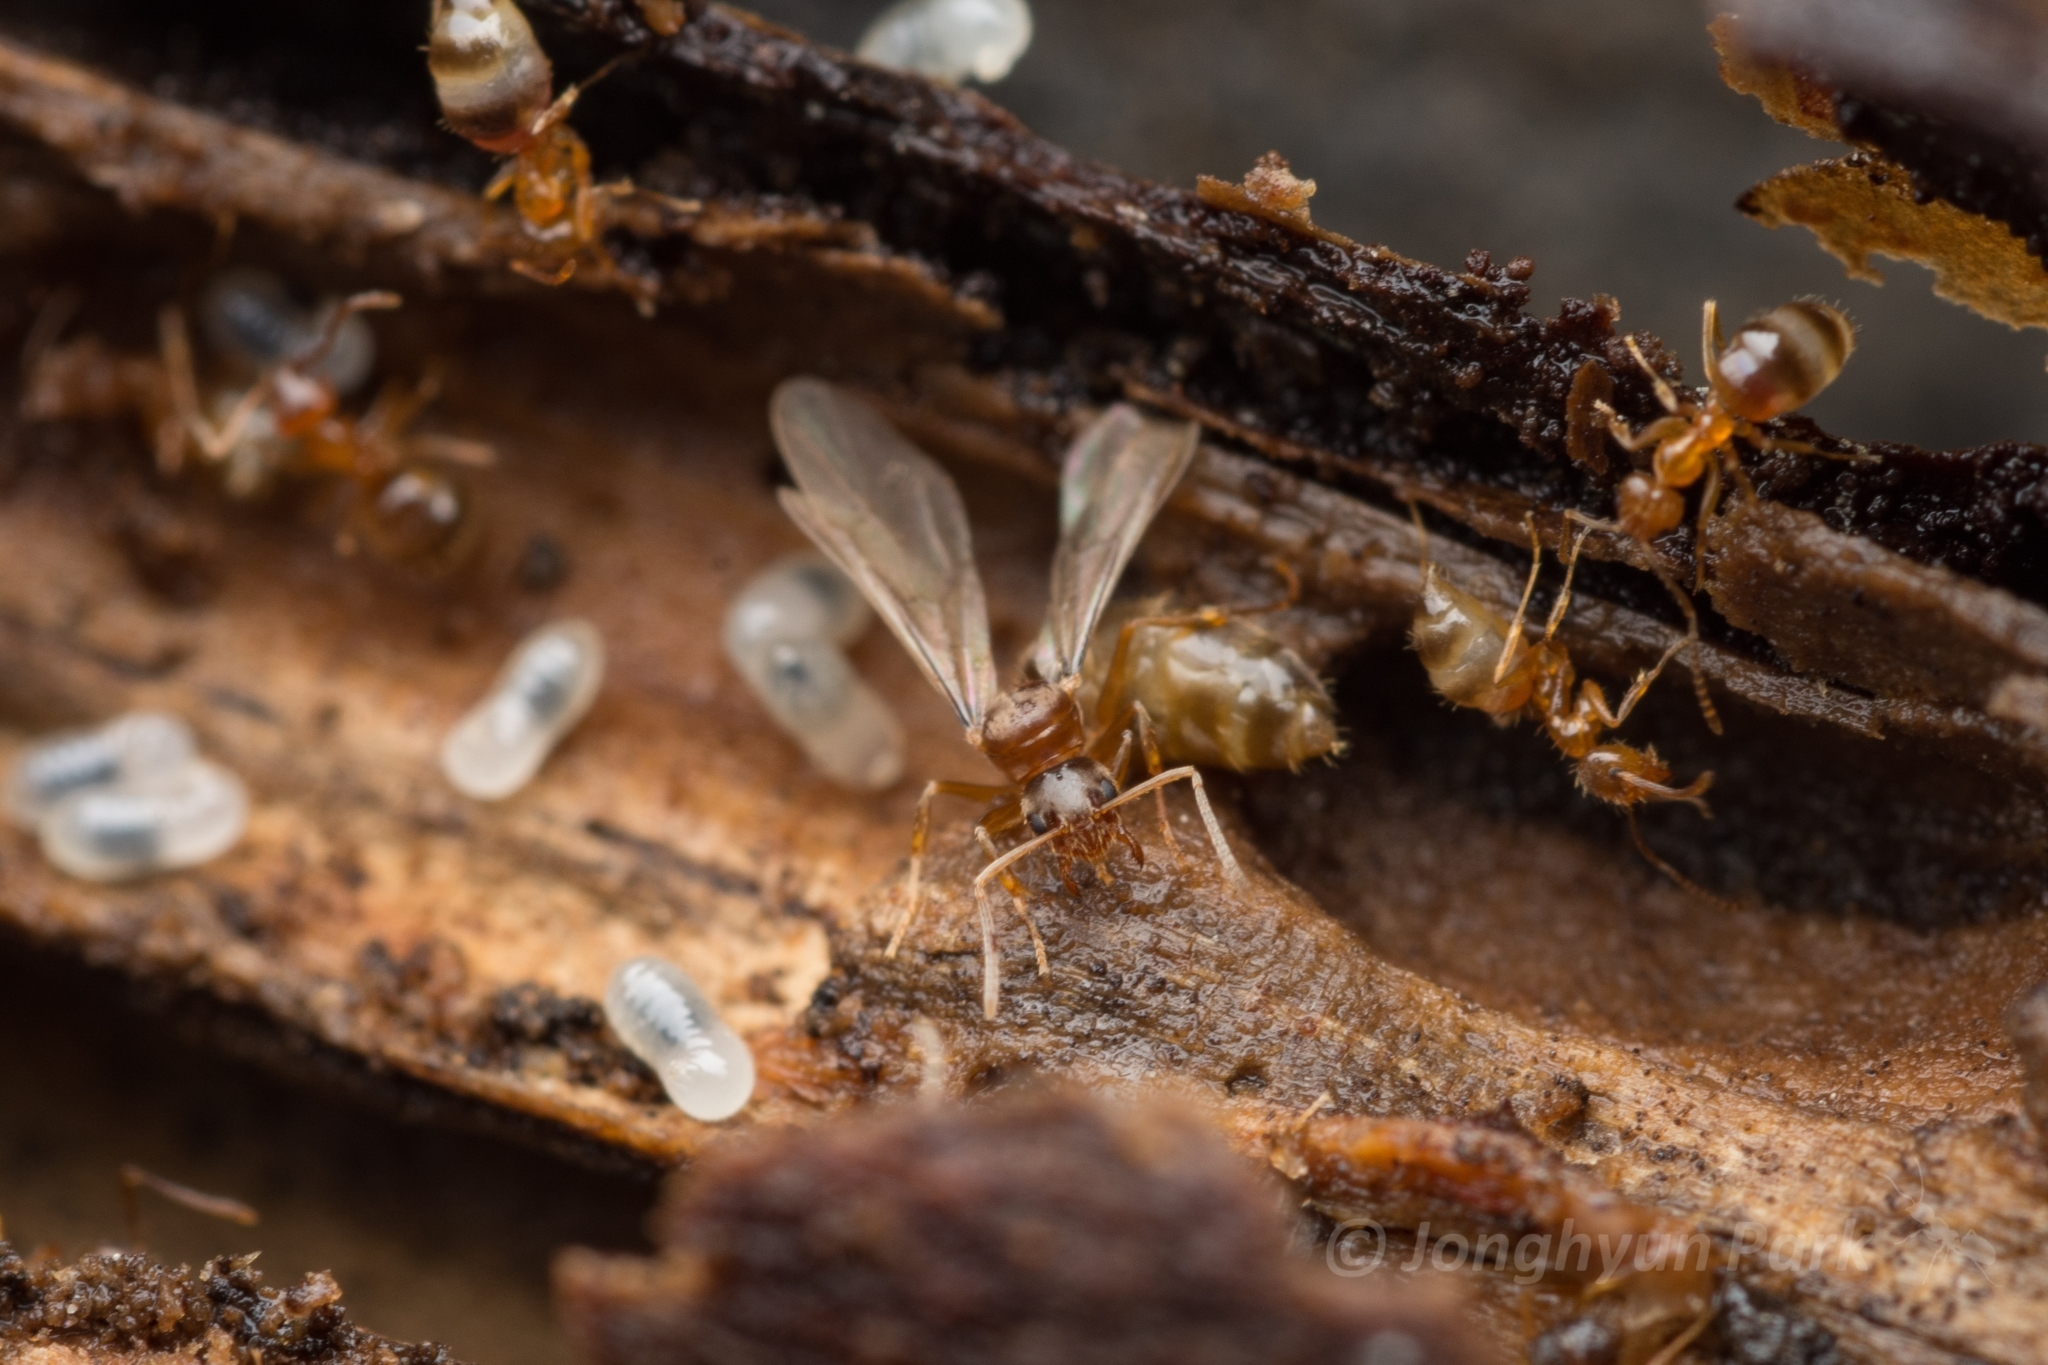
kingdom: Animalia
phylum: Arthropoda
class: Insecta
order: Hymenoptera
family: Formicidae
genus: Paratrechina
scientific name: Paratrechina flavipes
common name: Eastern asian formicine ant
